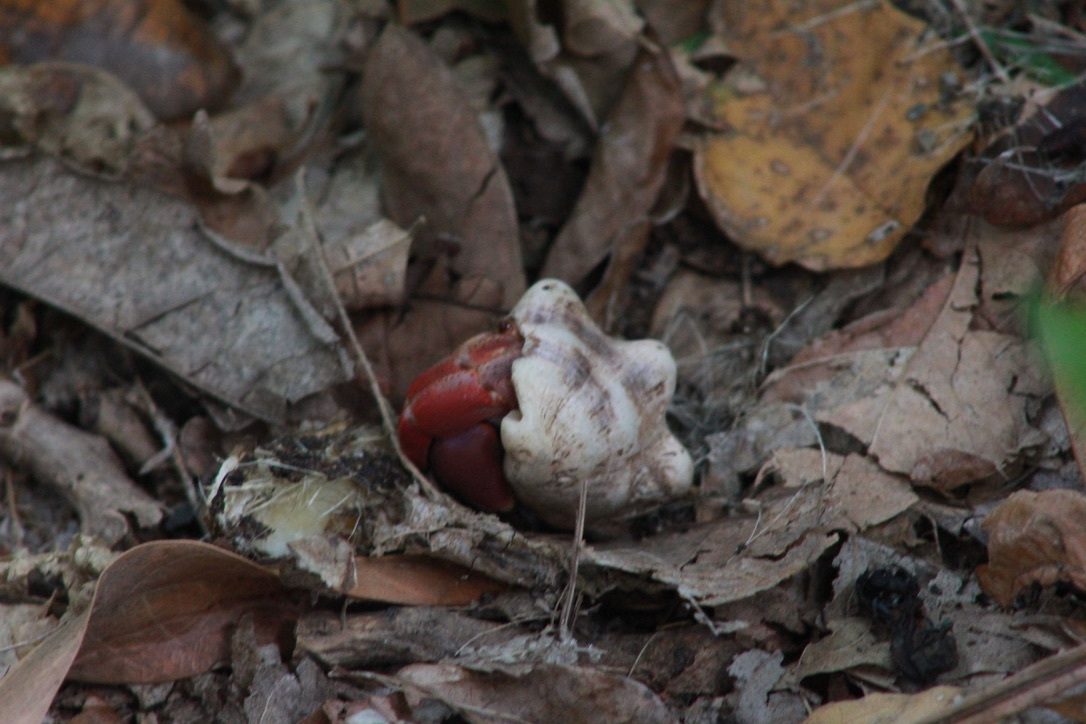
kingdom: Animalia
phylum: Arthropoda
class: Malacostraca
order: Decapoda
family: Coenobitidae
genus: Coenobita
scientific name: Coenobita clypeatus
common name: Caribbean hermit crab
